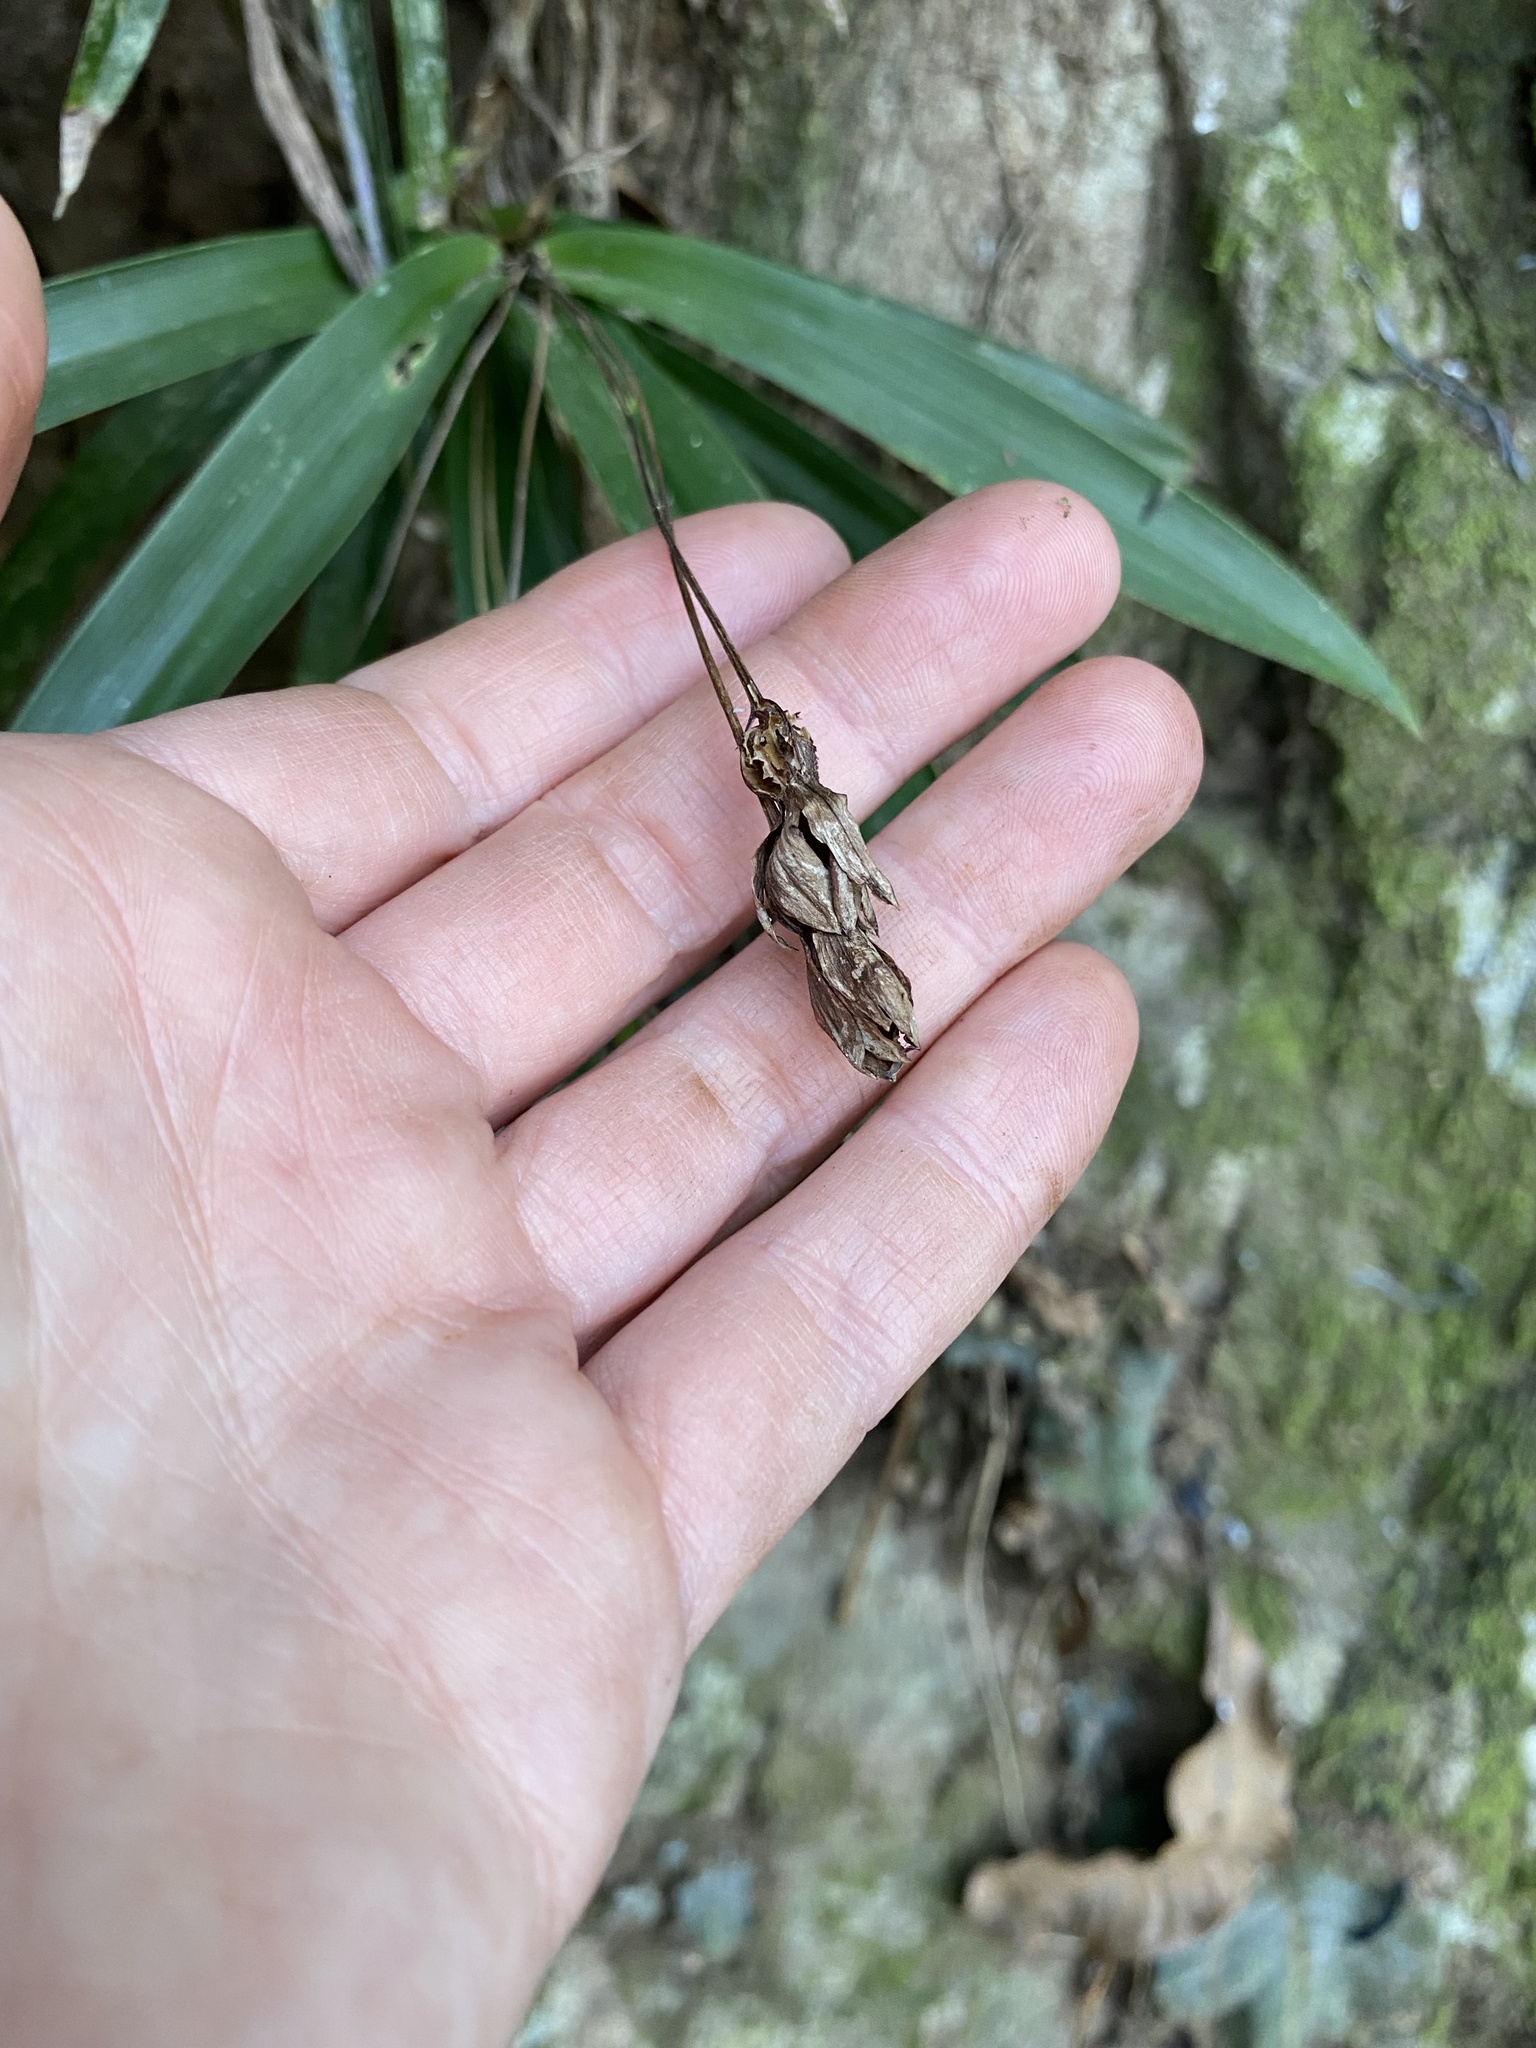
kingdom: Plantae
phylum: Tracheophyta
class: Liliopsida
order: Pandanales
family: Velloziaceae
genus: Xerophyta
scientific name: Xerophyta elegans
